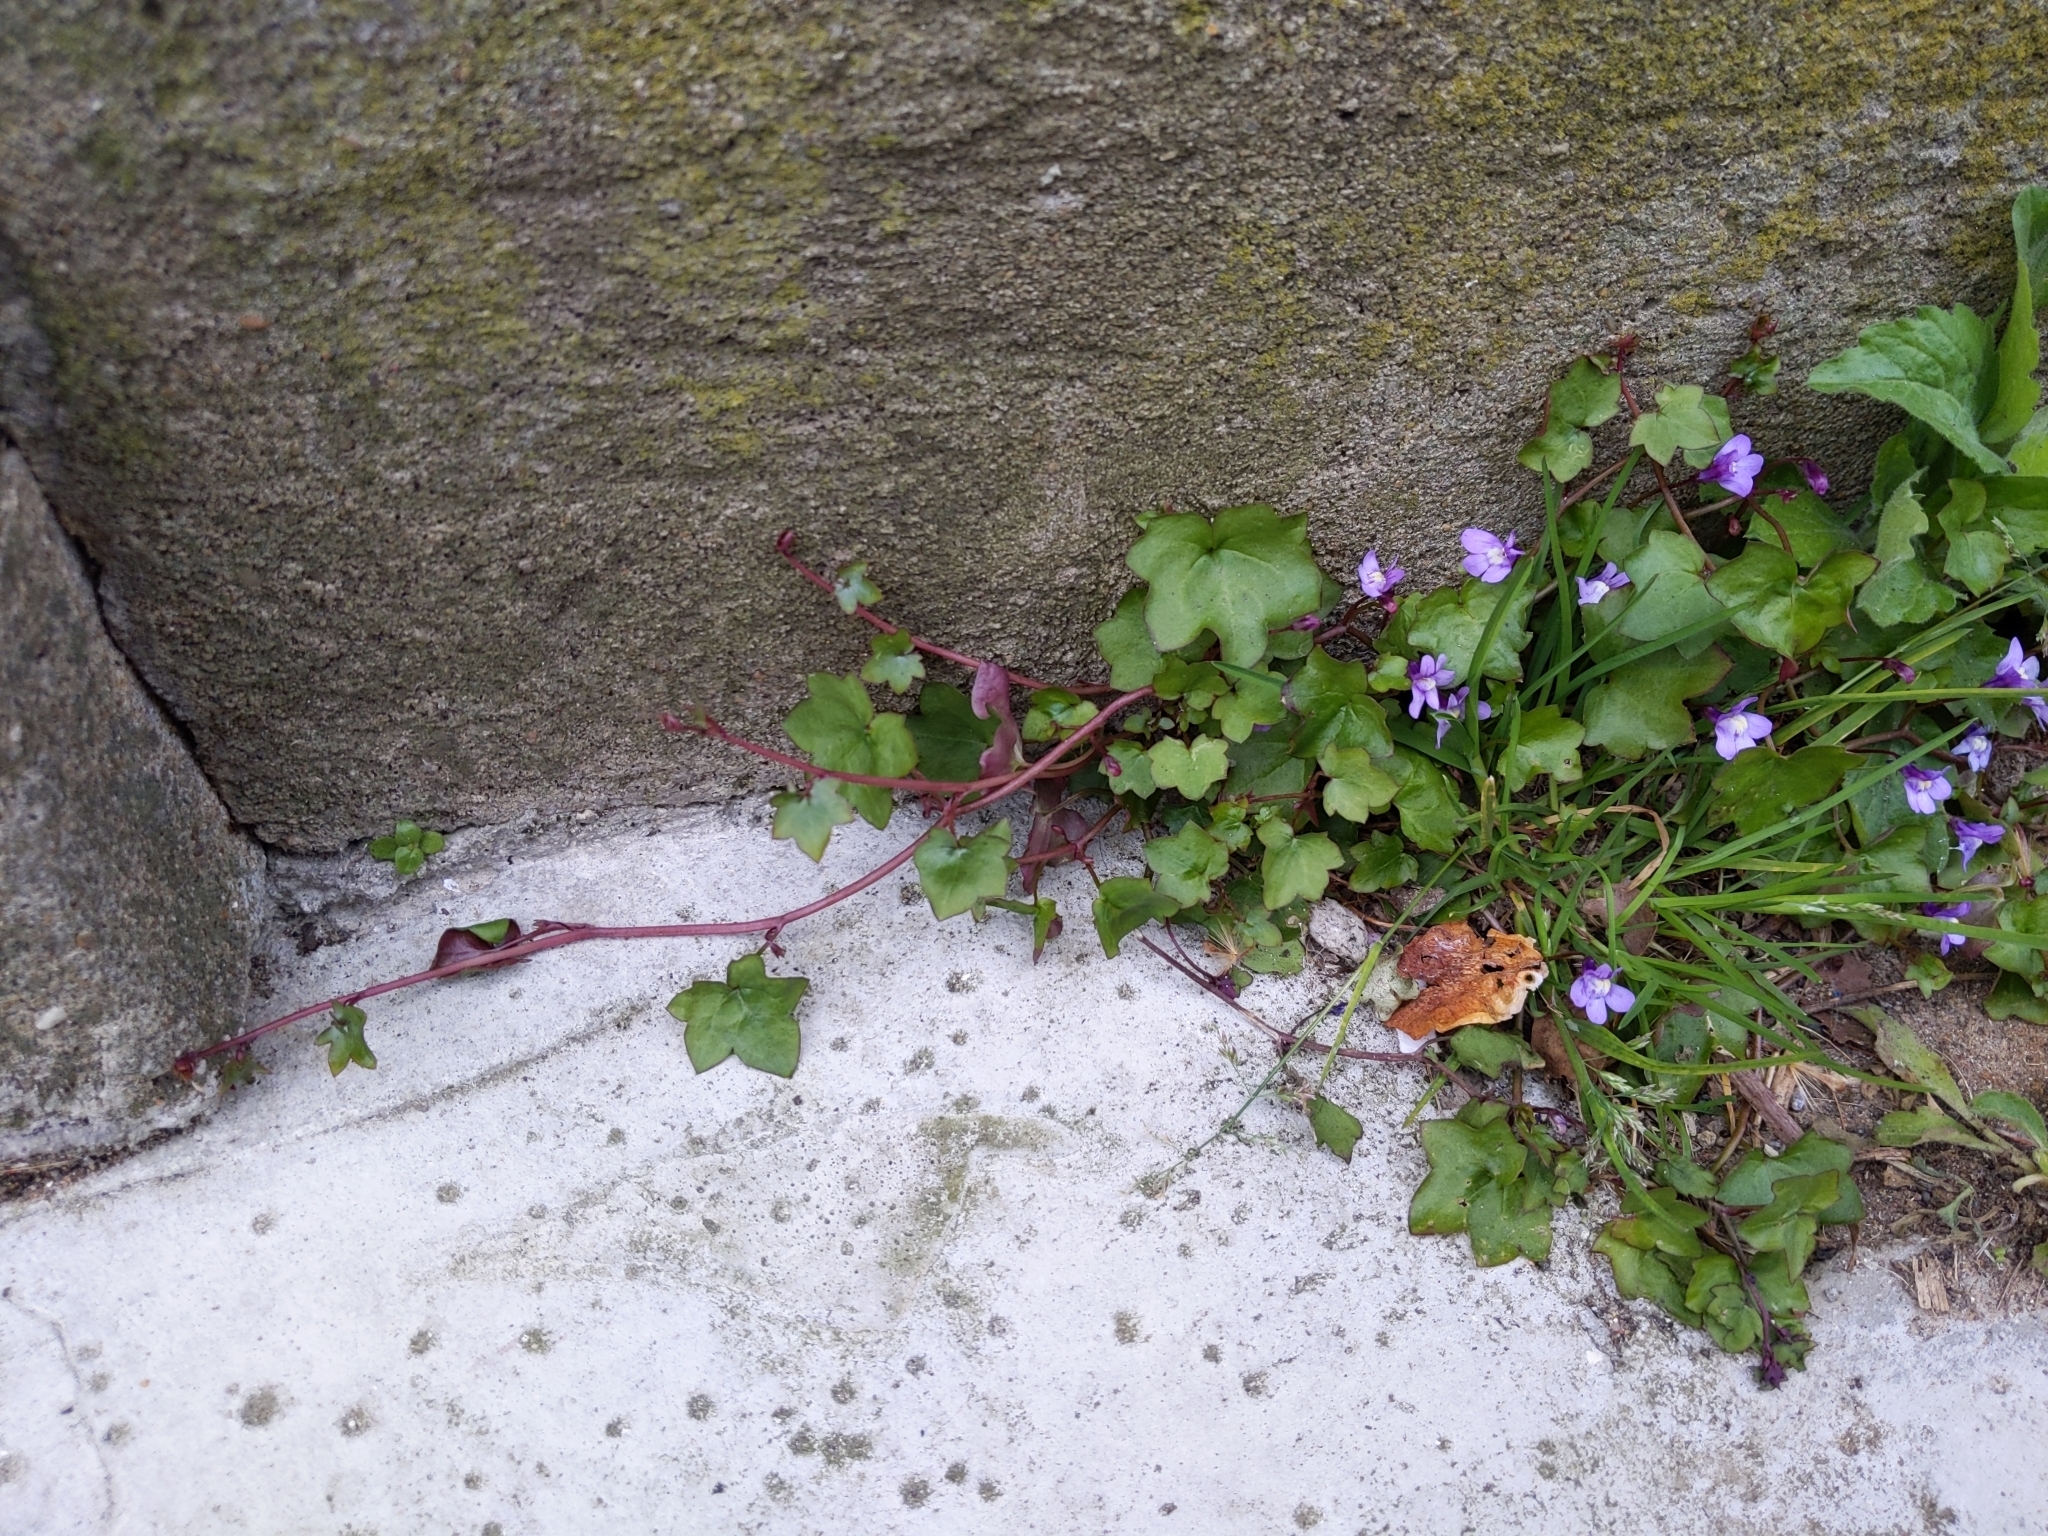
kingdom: Plantae
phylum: Tracheophyta
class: Magnoliopsida
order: Lamiales
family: Plantaginaceae
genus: Cymbalaria
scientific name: Cymbalaria muralis
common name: Ivy-leaved toadflax
